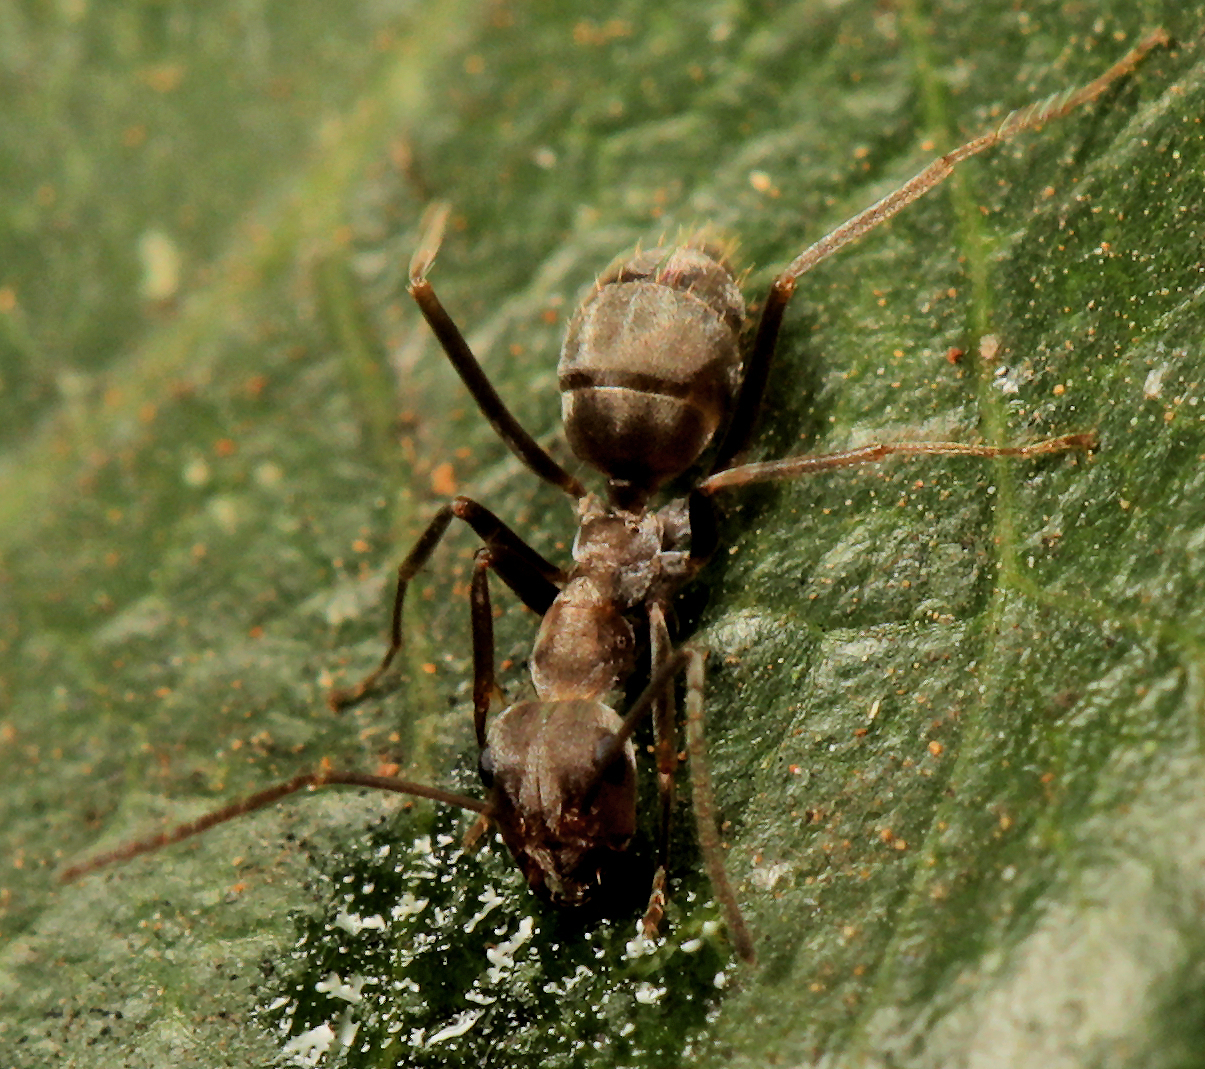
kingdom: Animalia
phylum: Arthropoda
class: Insecta
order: Hymenoptera
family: Formicidae
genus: Anoplolepis
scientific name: Anoplolepis custodiens
